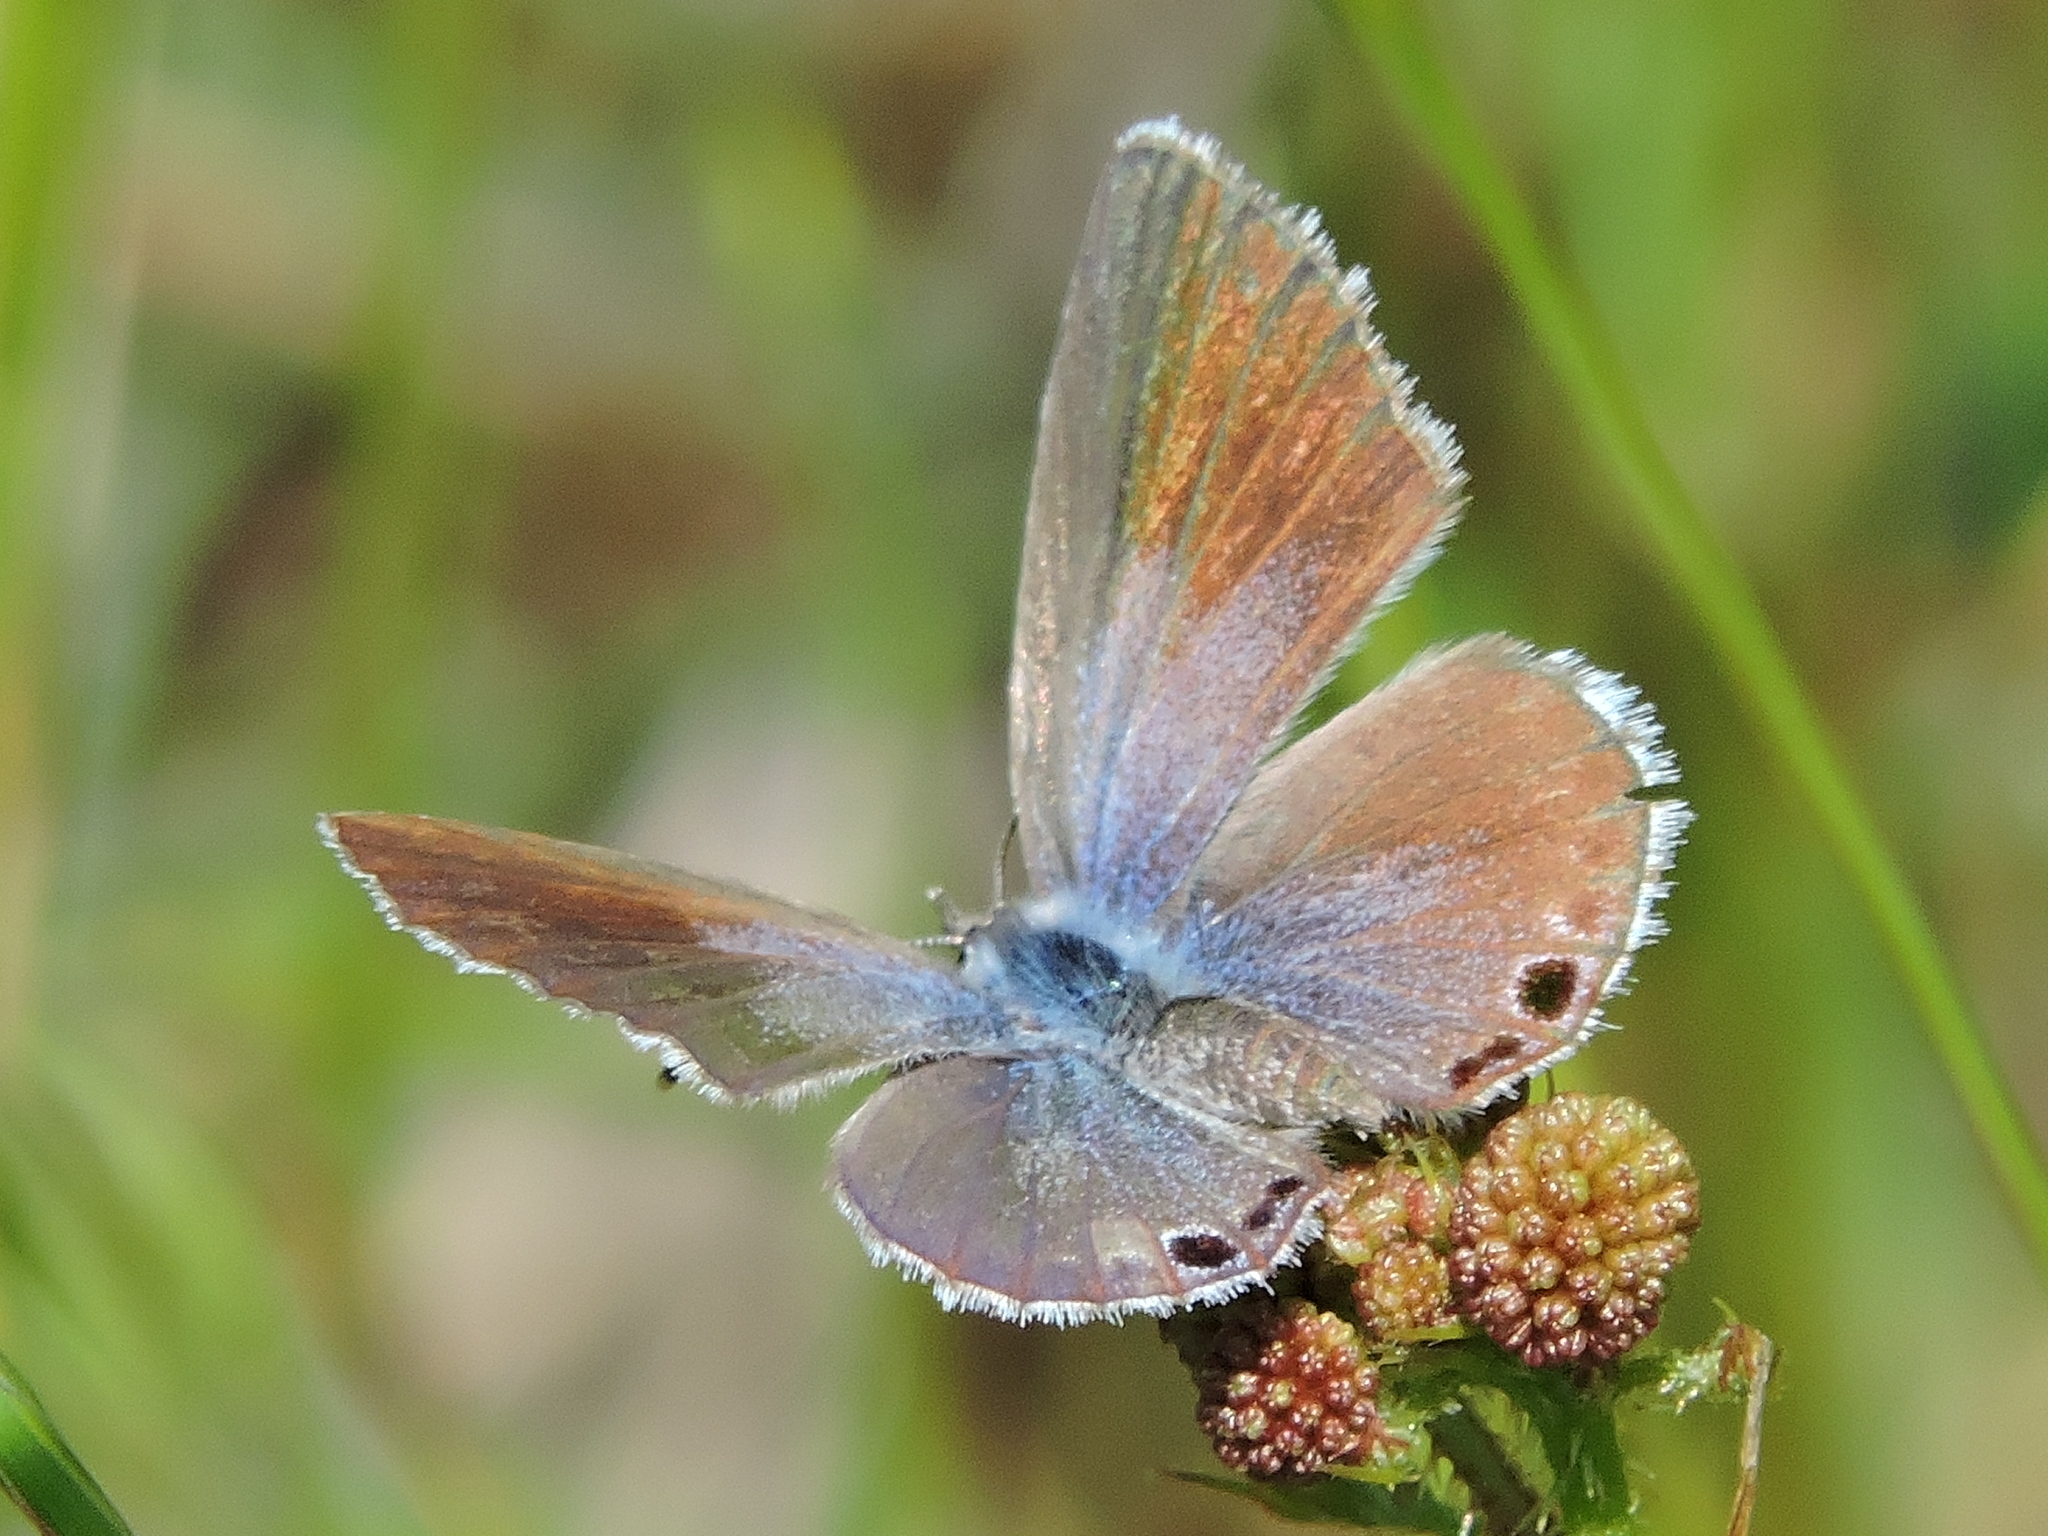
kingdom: Animalia
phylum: Arthropoda
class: Insecta
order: Lepidoptera
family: Lycaenidae
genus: Echinargus
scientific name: Echinargus isola
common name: Reakirt's blue
